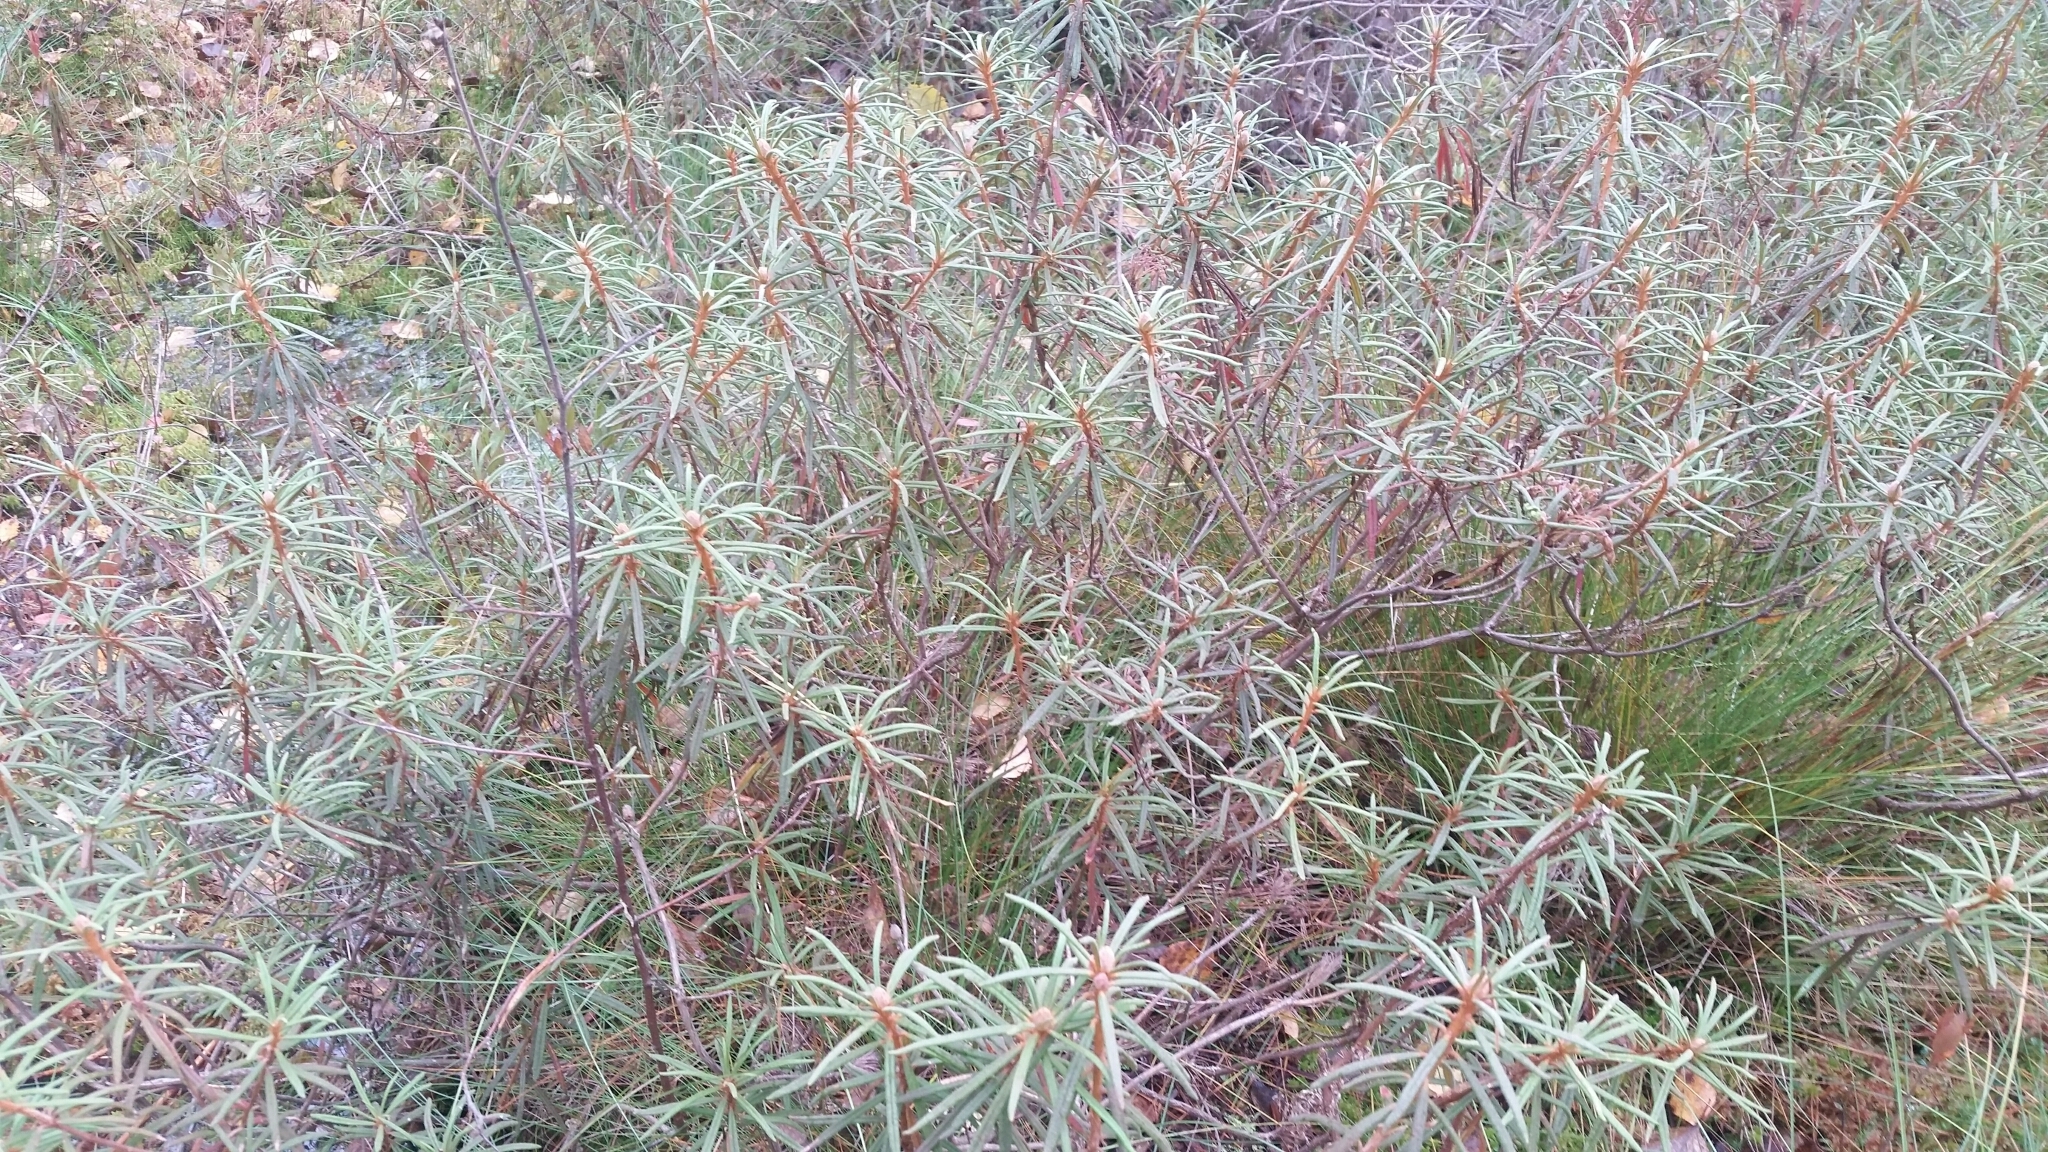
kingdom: Plantae
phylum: Tracheophyta
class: Magnoliopsida
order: Ericales
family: Ericaceae
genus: Rhododendron
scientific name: Rhododendron tomentosum
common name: Marsh labrador tea
